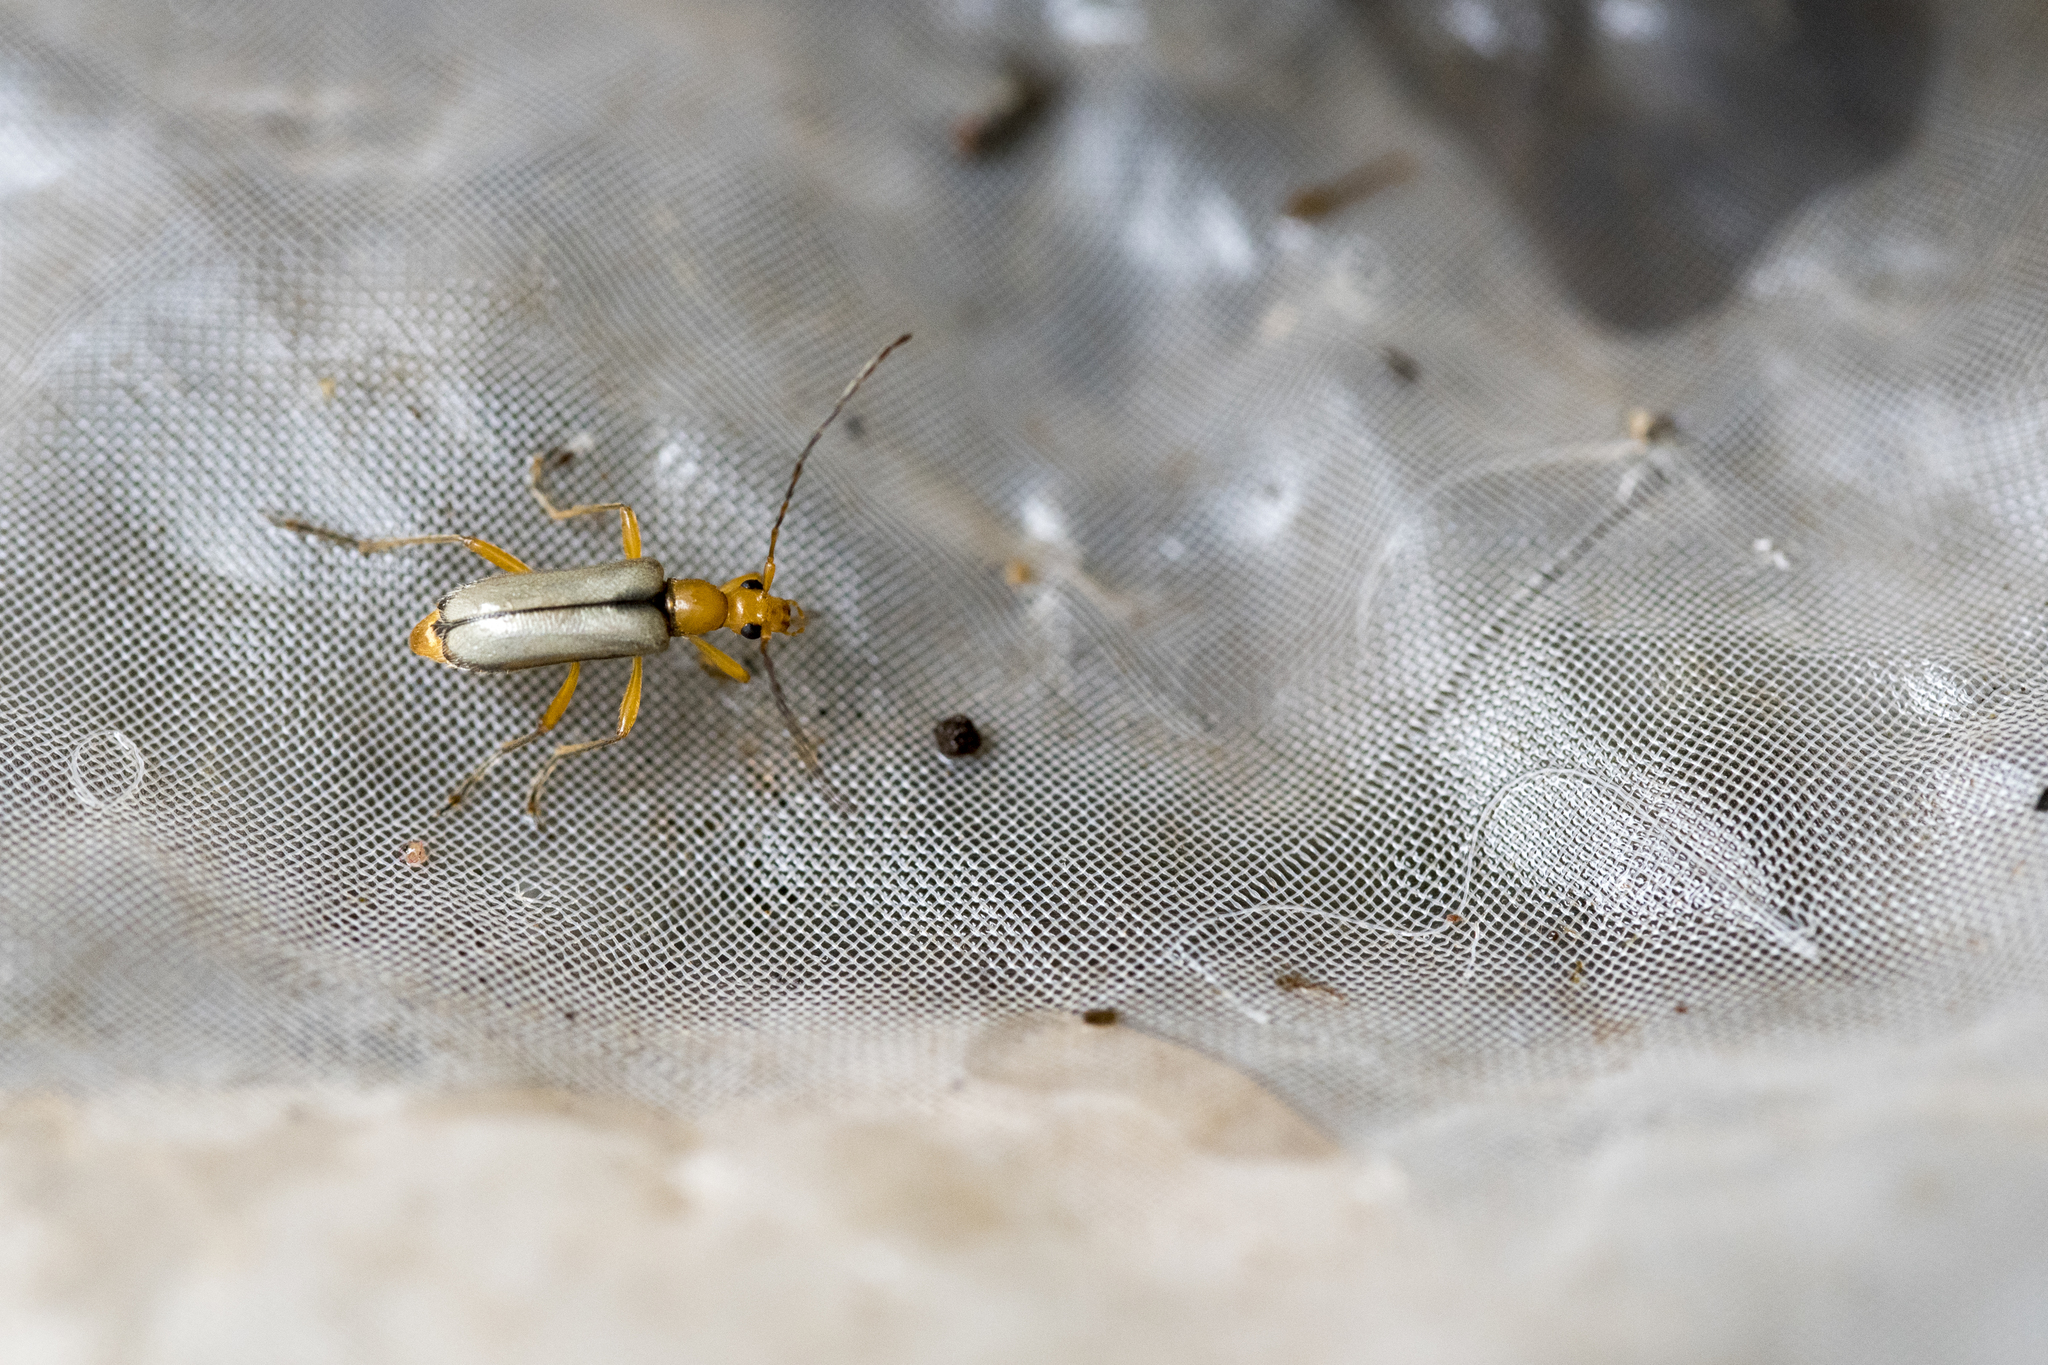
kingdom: Animalia
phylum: Arthropoda
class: Insecta
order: Coleoptera
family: Cerambycidae
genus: Pidonia
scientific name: Pidonia chienhsingi
